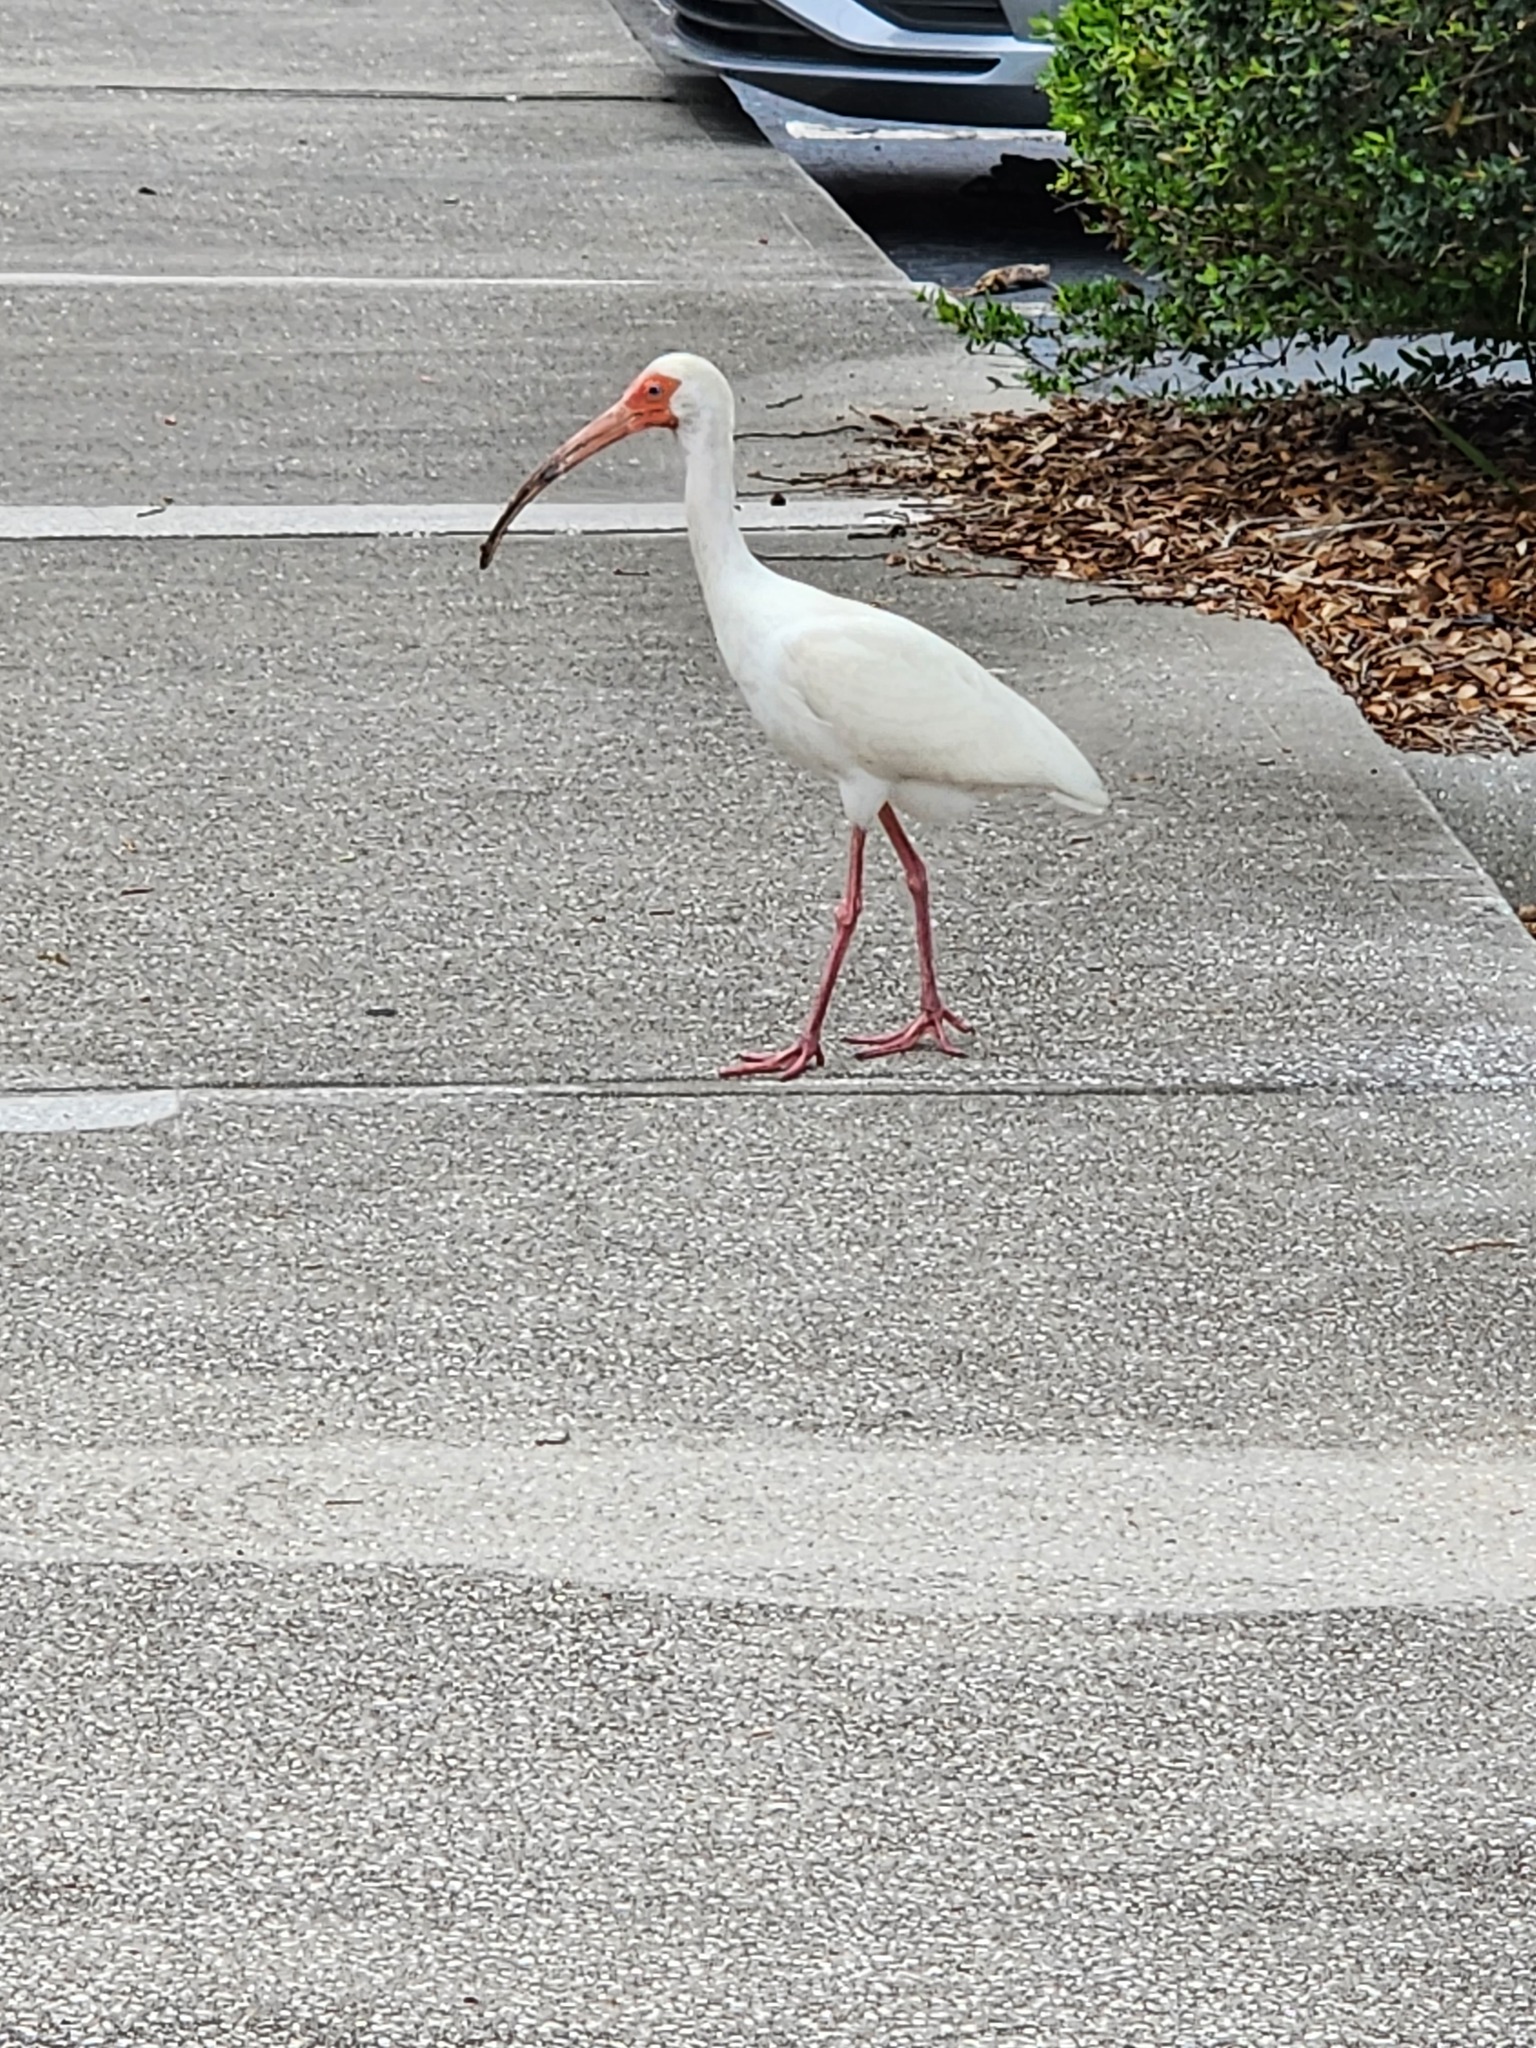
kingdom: Animalia
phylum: Chordata
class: Aves
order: Pelecaniformes
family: Threskiornithidae
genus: Eudocimus
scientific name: Eudocimus albus
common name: White ibis
